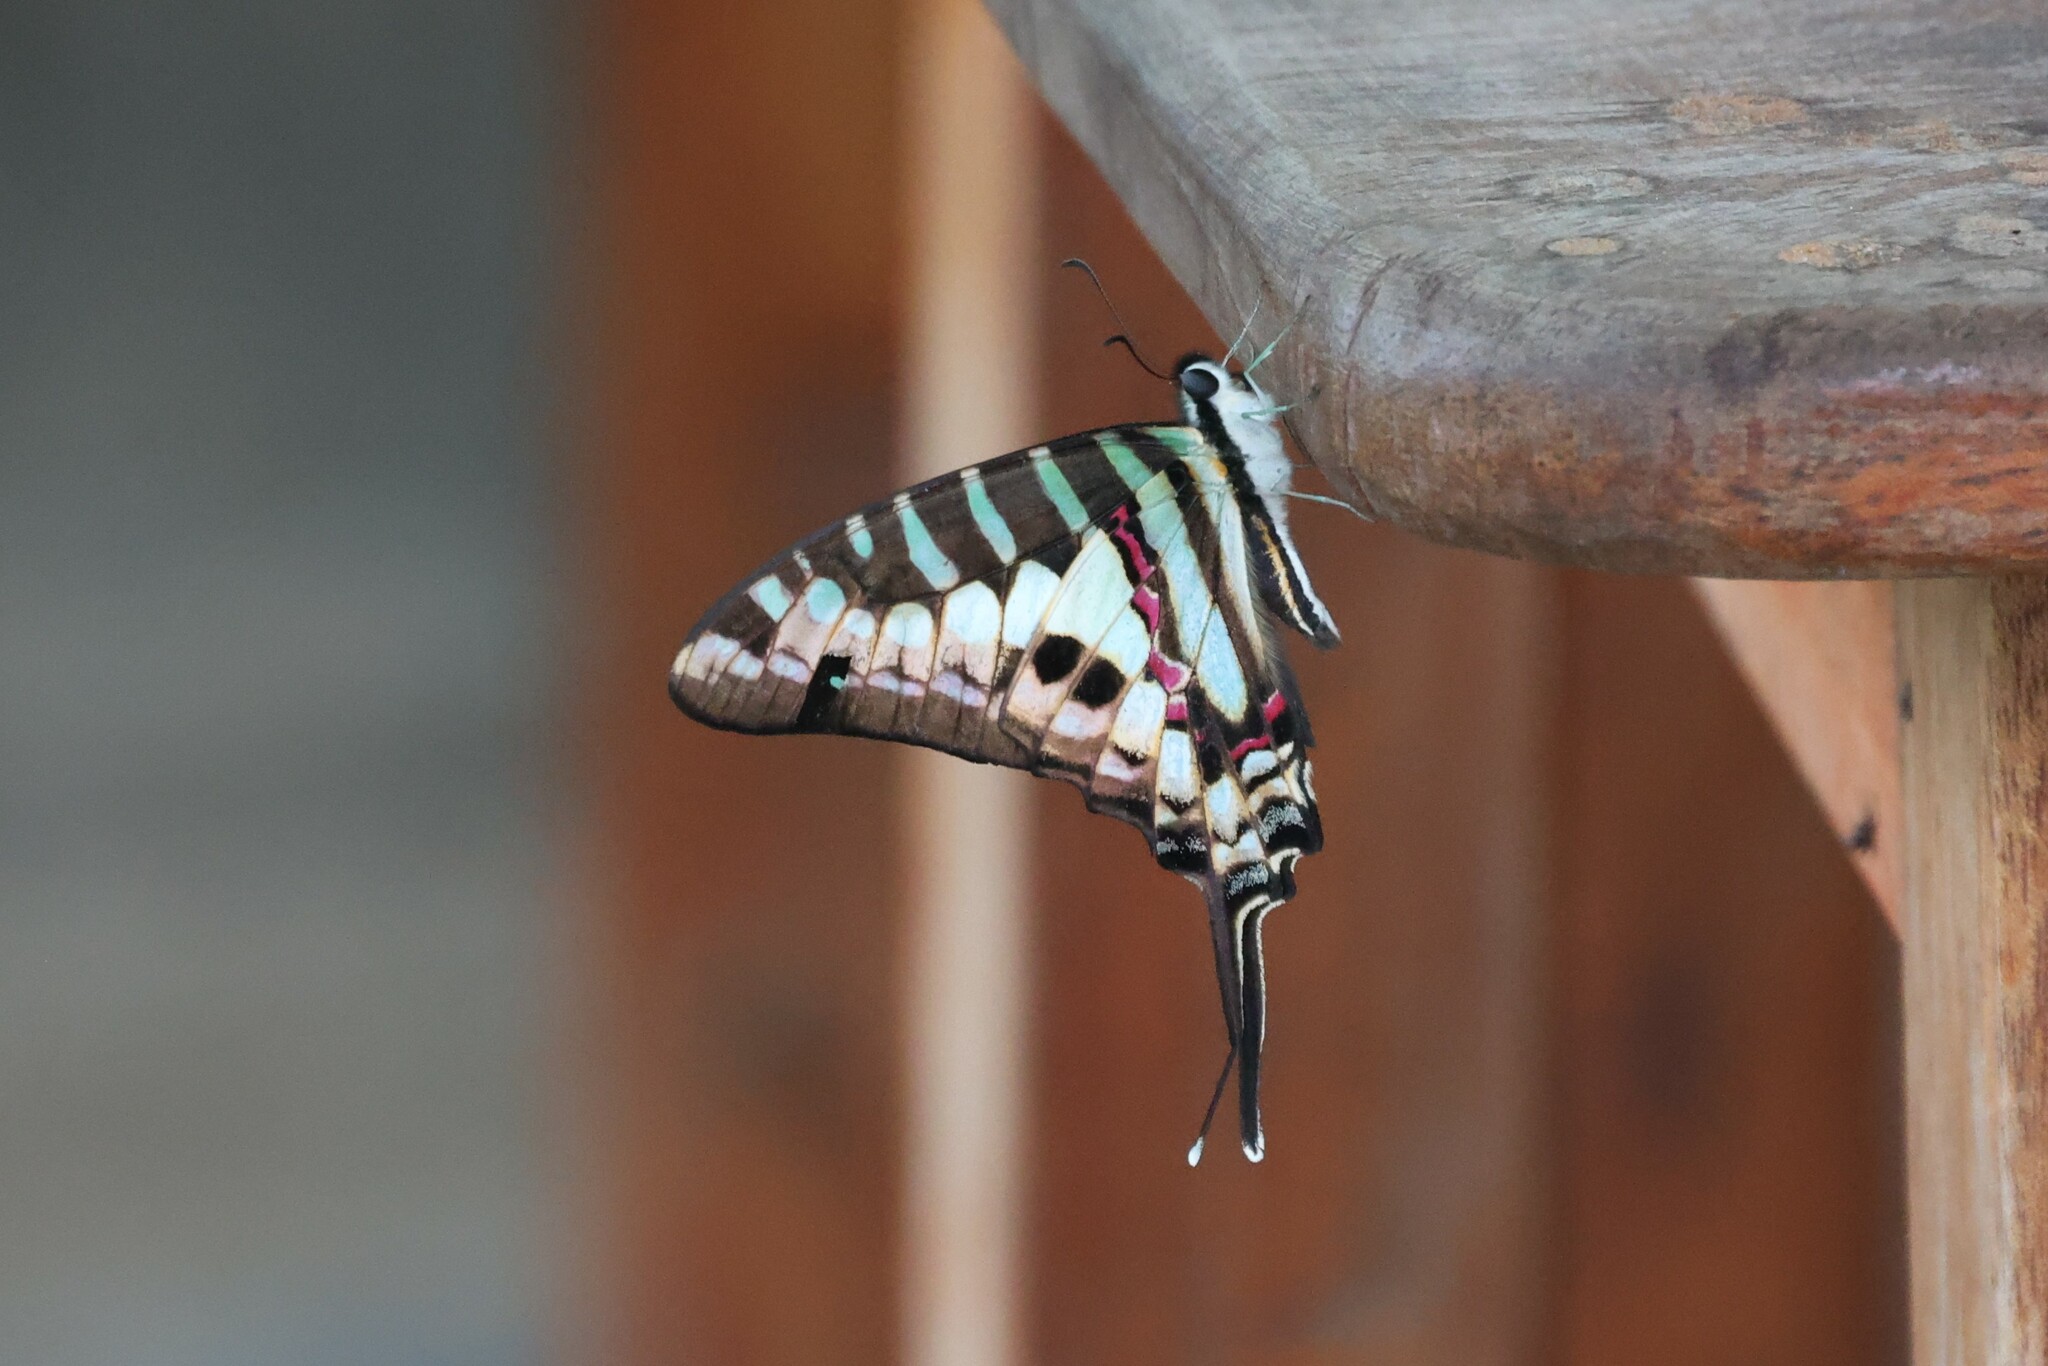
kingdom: Animalia
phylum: Arthropoda
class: Insecta
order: Lepidoptera
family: Papilionidae
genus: Graphium
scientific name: Graphium policenes
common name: Common swordtail
